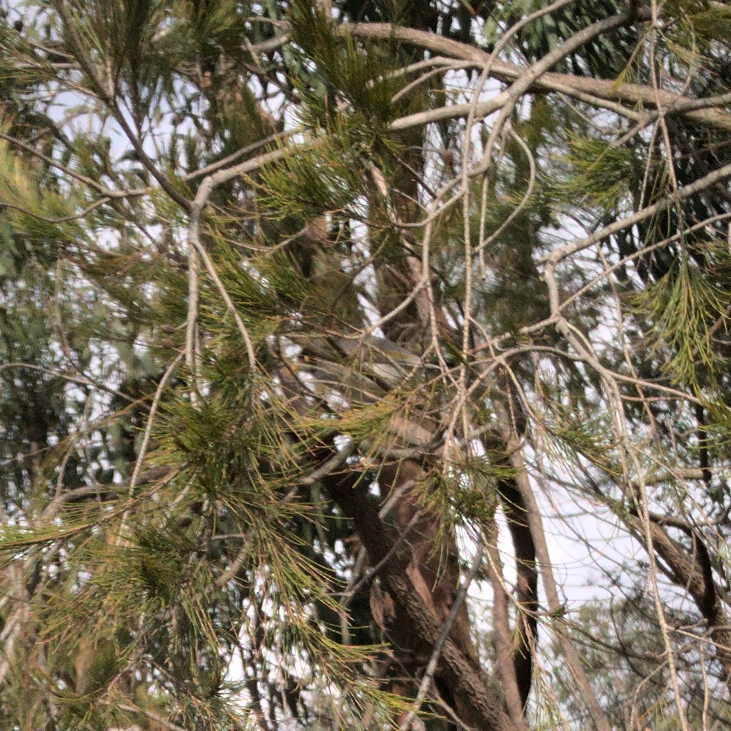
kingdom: Animalia
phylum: Chordata
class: Aves
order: Passeriformes
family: Meliphagidae
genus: Manorina
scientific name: Manorina melanocephala
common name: Noisy miner
